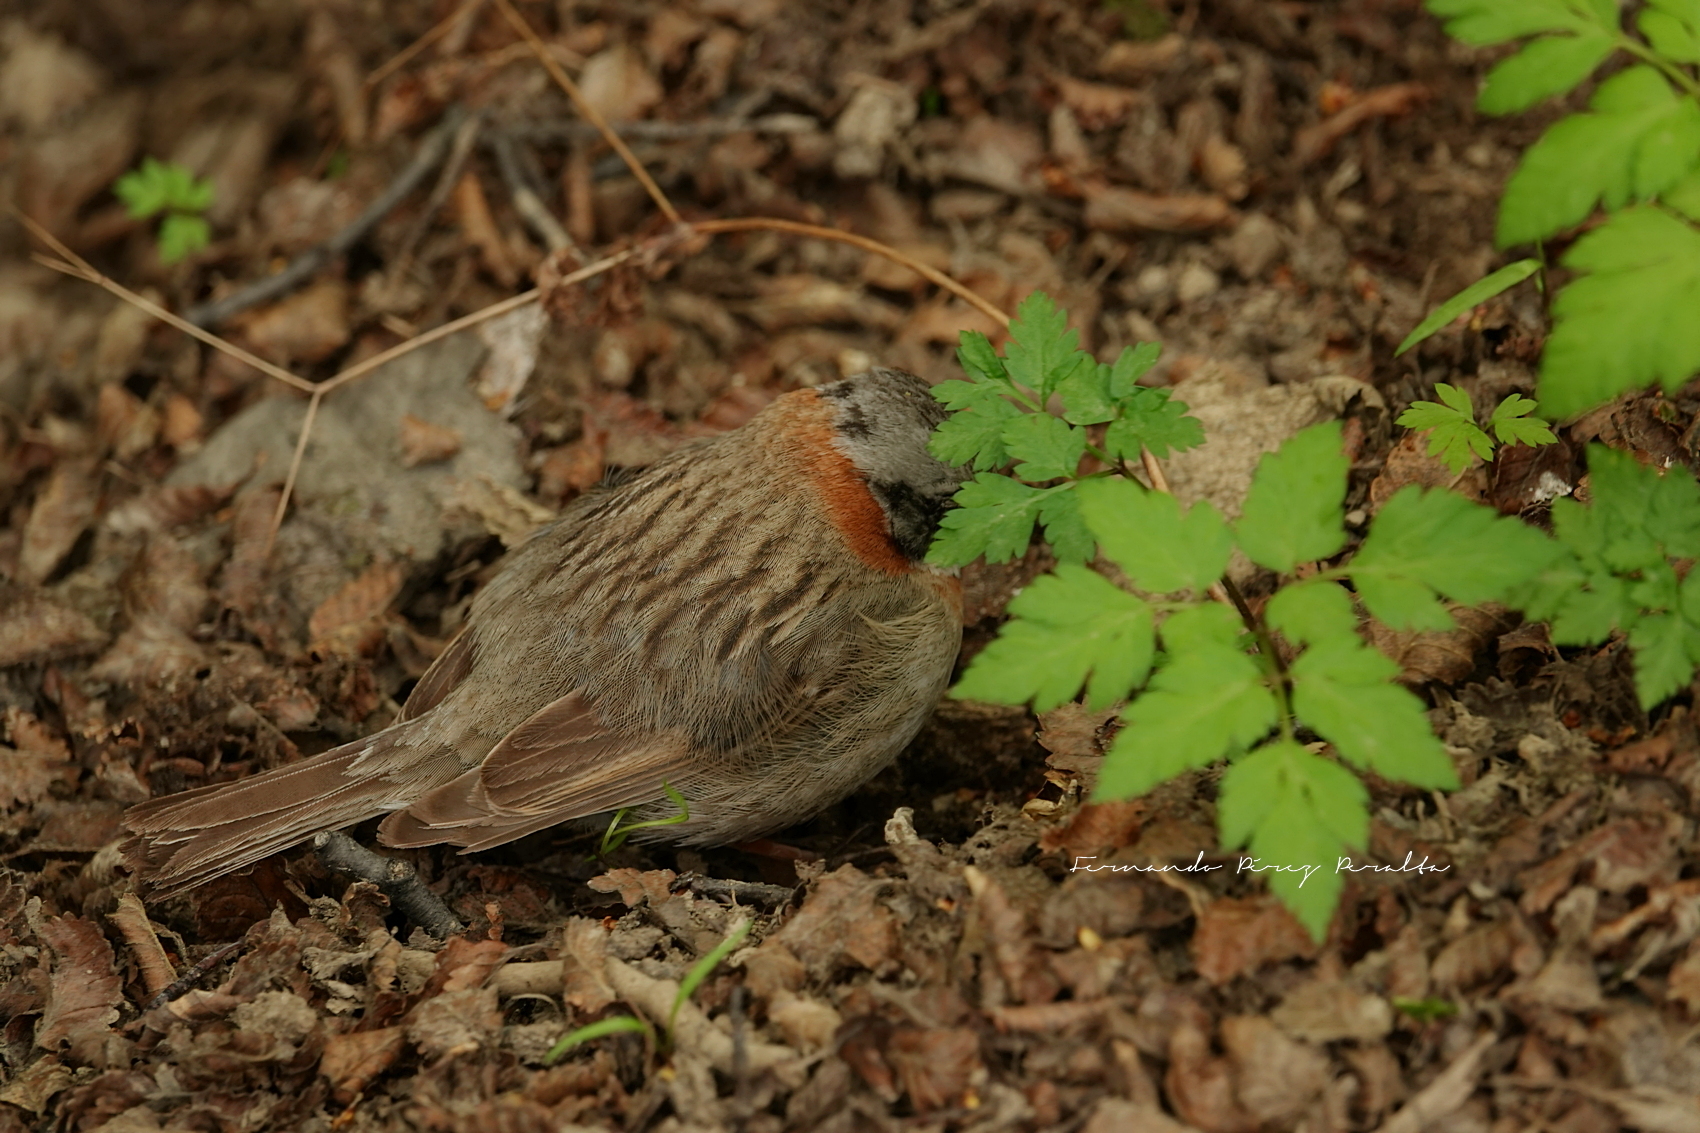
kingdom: Animalia
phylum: Chordata
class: Aves
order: Passeriformes
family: Passerellidae
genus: Zonotrichia
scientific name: Zonotrichia capensis
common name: Rufous-collared sparrow
